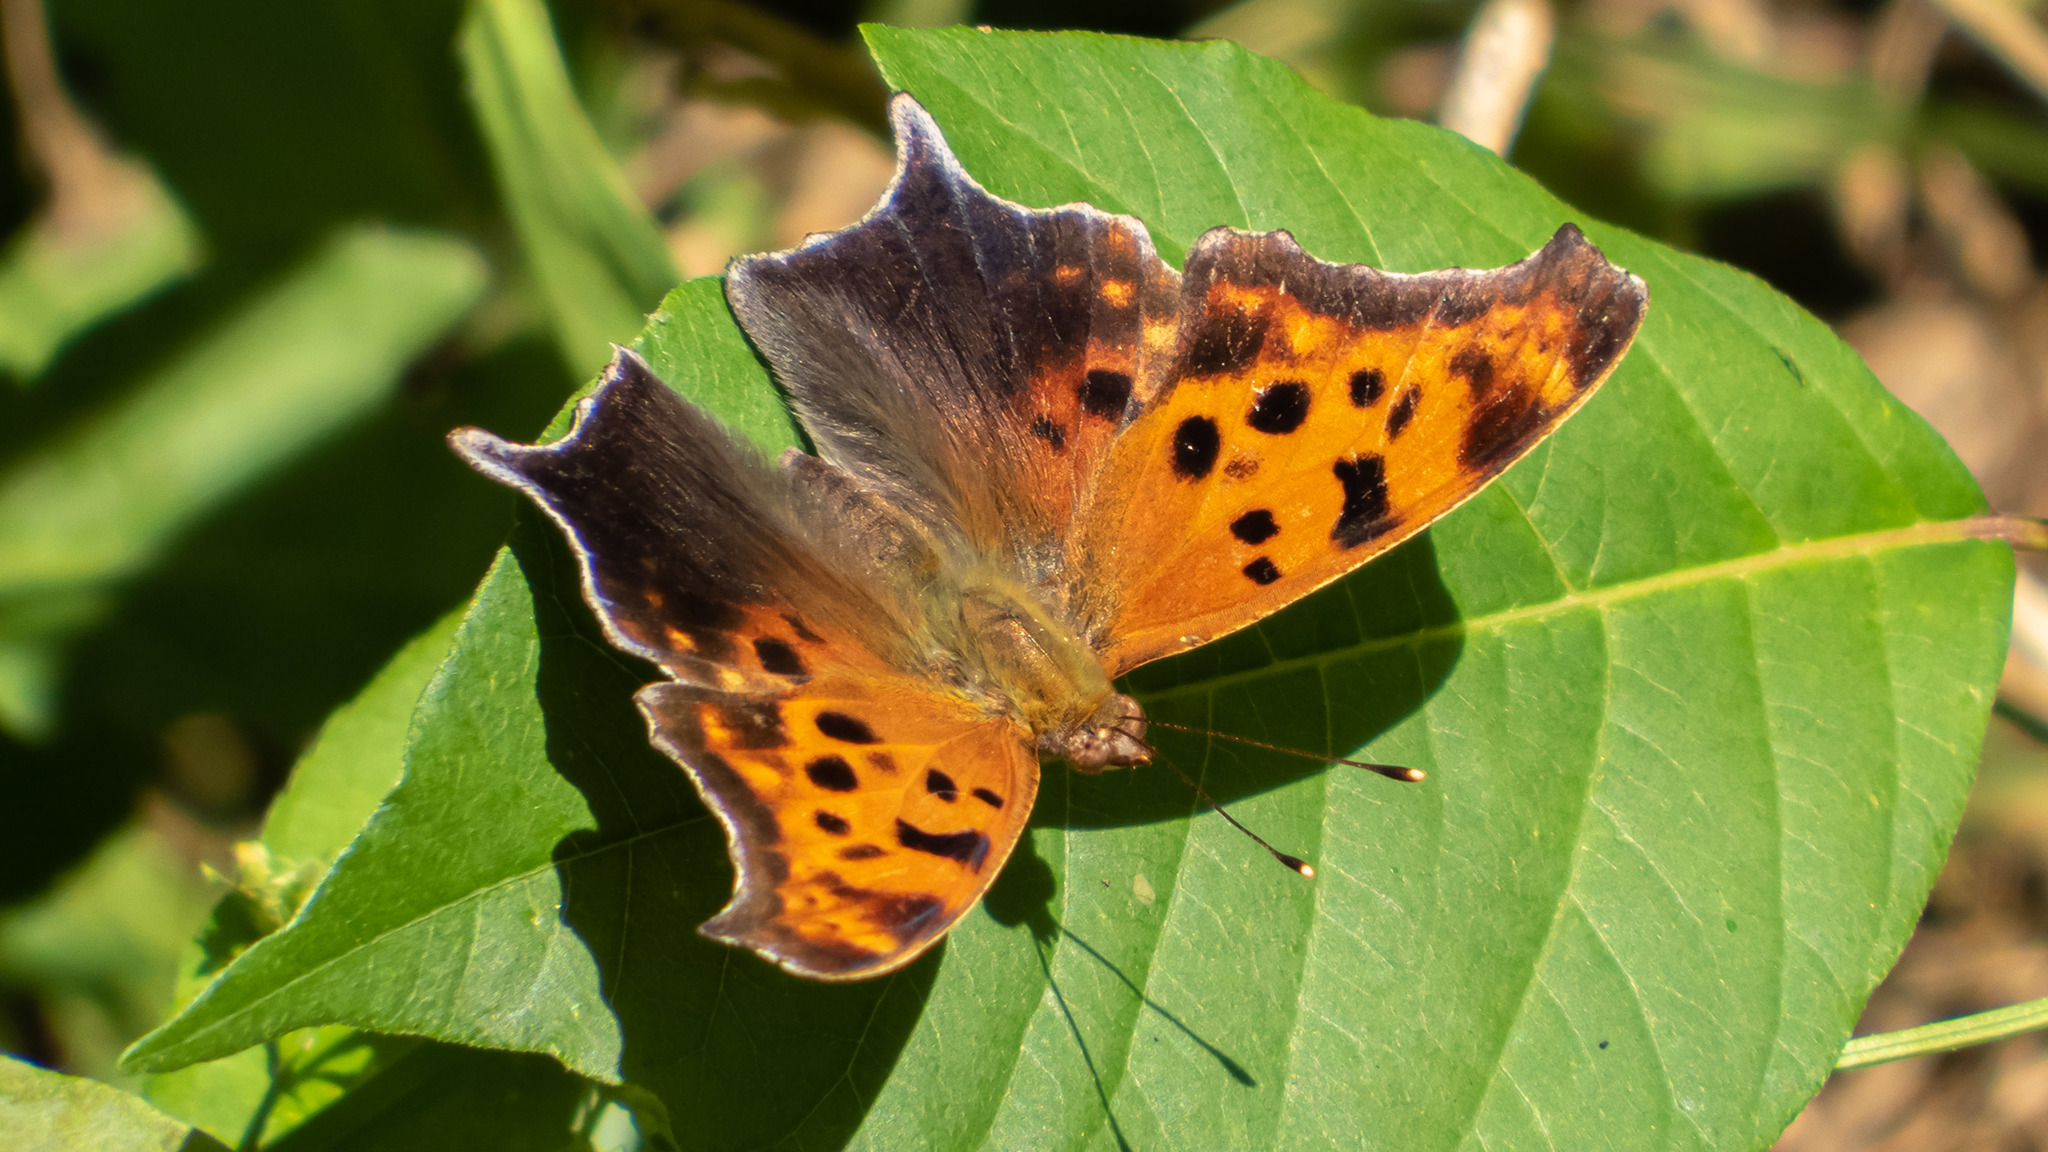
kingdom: Animalia
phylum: Arthropoda
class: Insecta
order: Lepidoptera
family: Nymphalidae
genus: Polygonia
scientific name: Polygonia interrogationis
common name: Question mark
